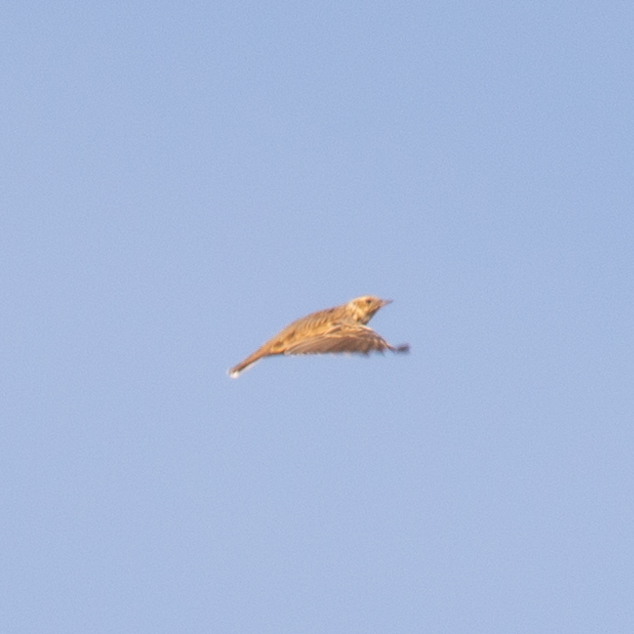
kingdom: Animalia
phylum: Chordata
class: Aves
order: Passeriformes
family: Alaudidae
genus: Lullula
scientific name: Lullula arborea
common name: Woodlark
